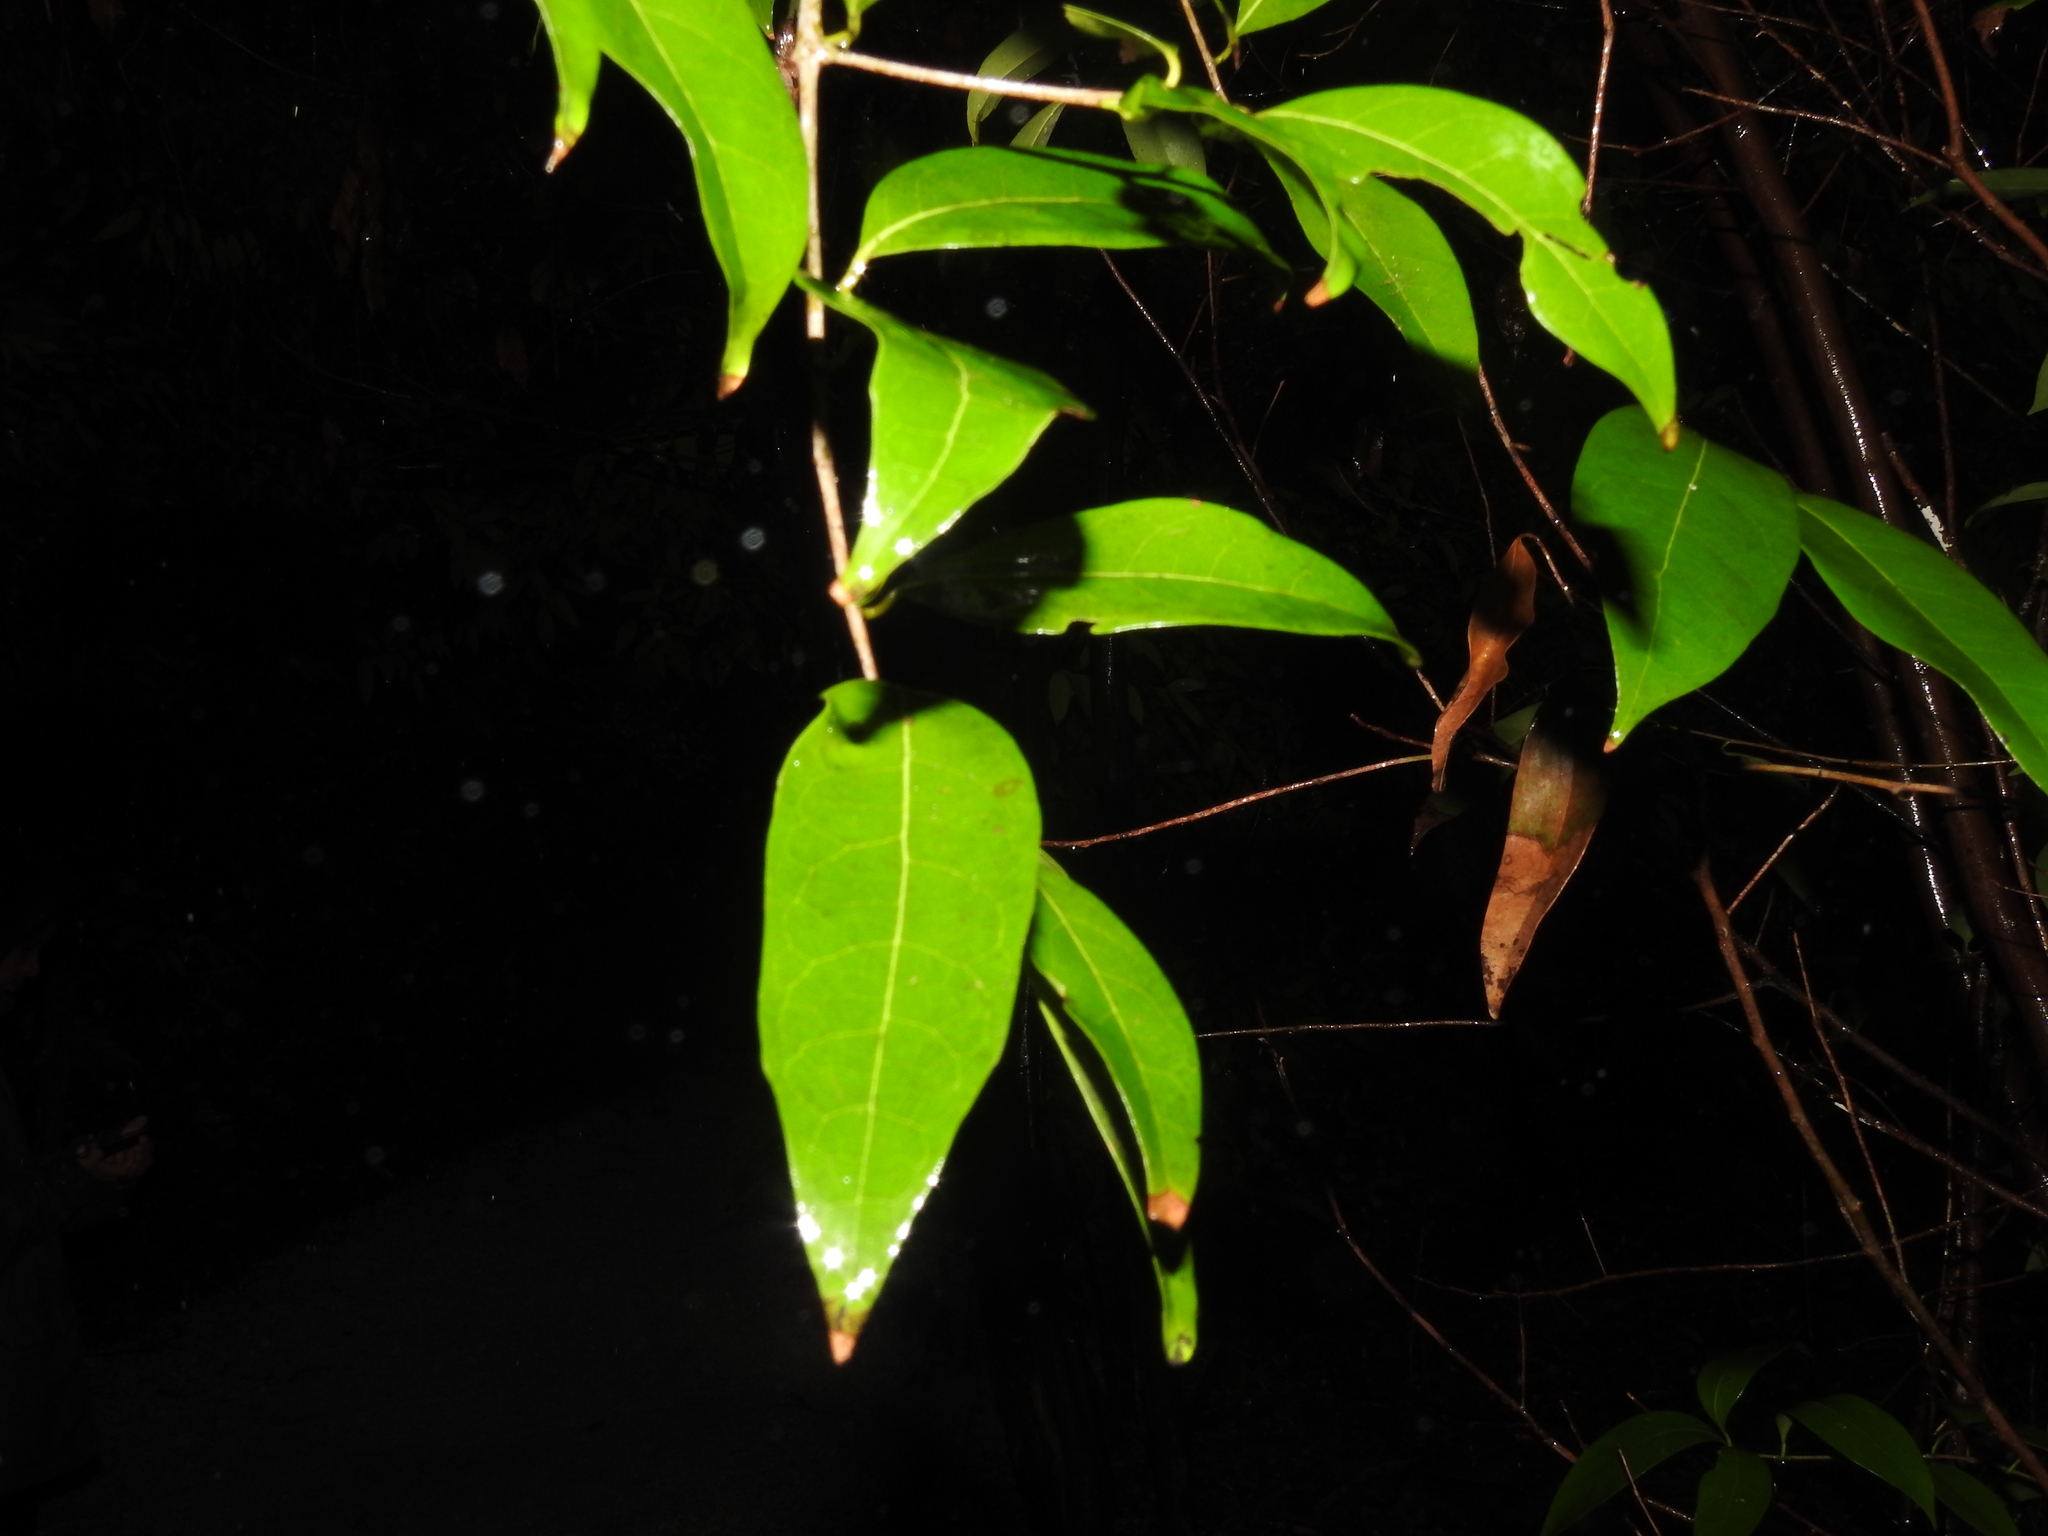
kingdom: Plantae
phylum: Tracheophyta
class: Magnoliopsida
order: Laurales
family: Lauraceae
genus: Damburneya
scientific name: Damburneya
